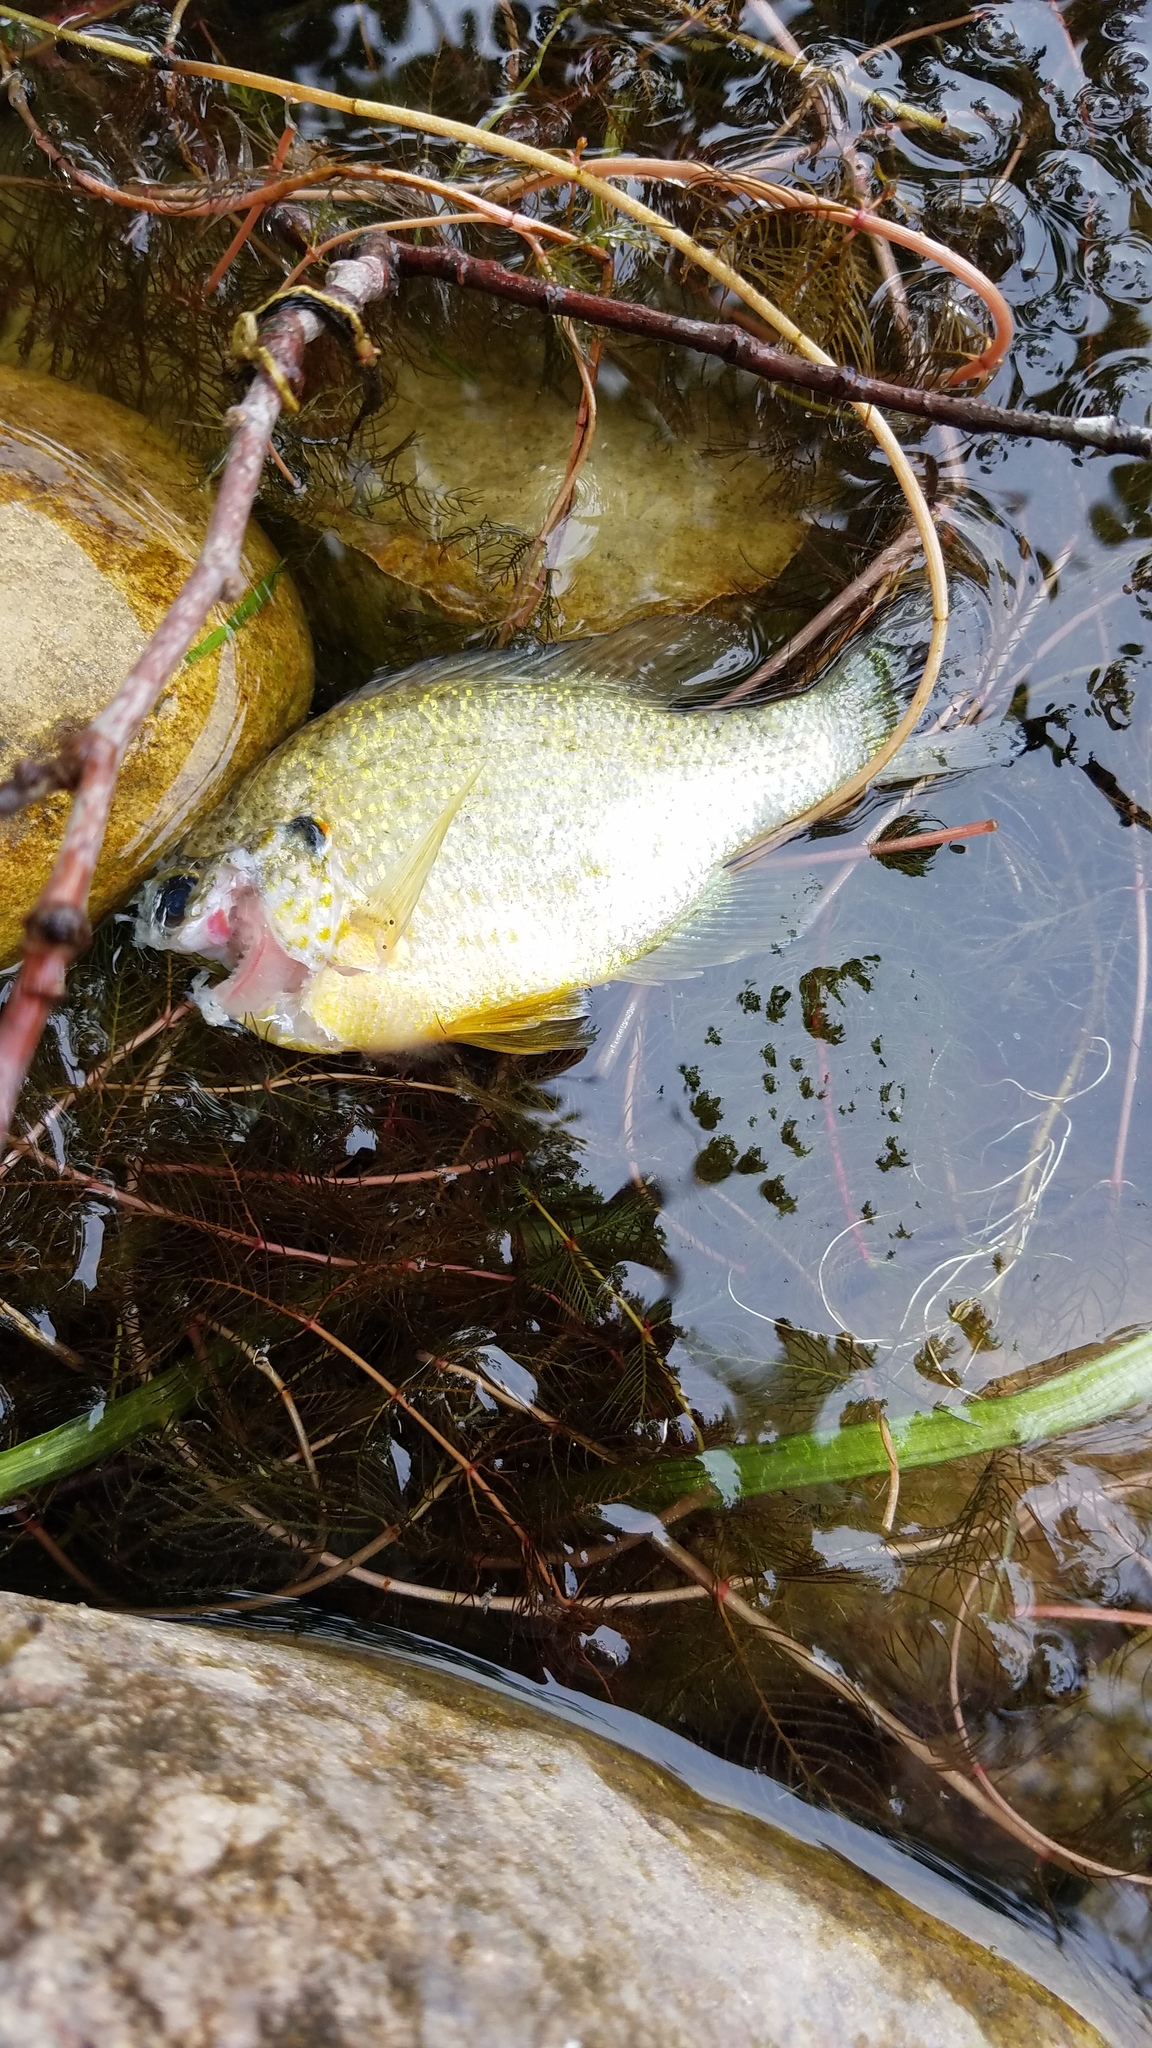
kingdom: Animalia
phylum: Chordata
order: Perciformes
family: Centrarchidae
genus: Lepomis
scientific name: Lepomis gibbosus
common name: Pumpkinseed
